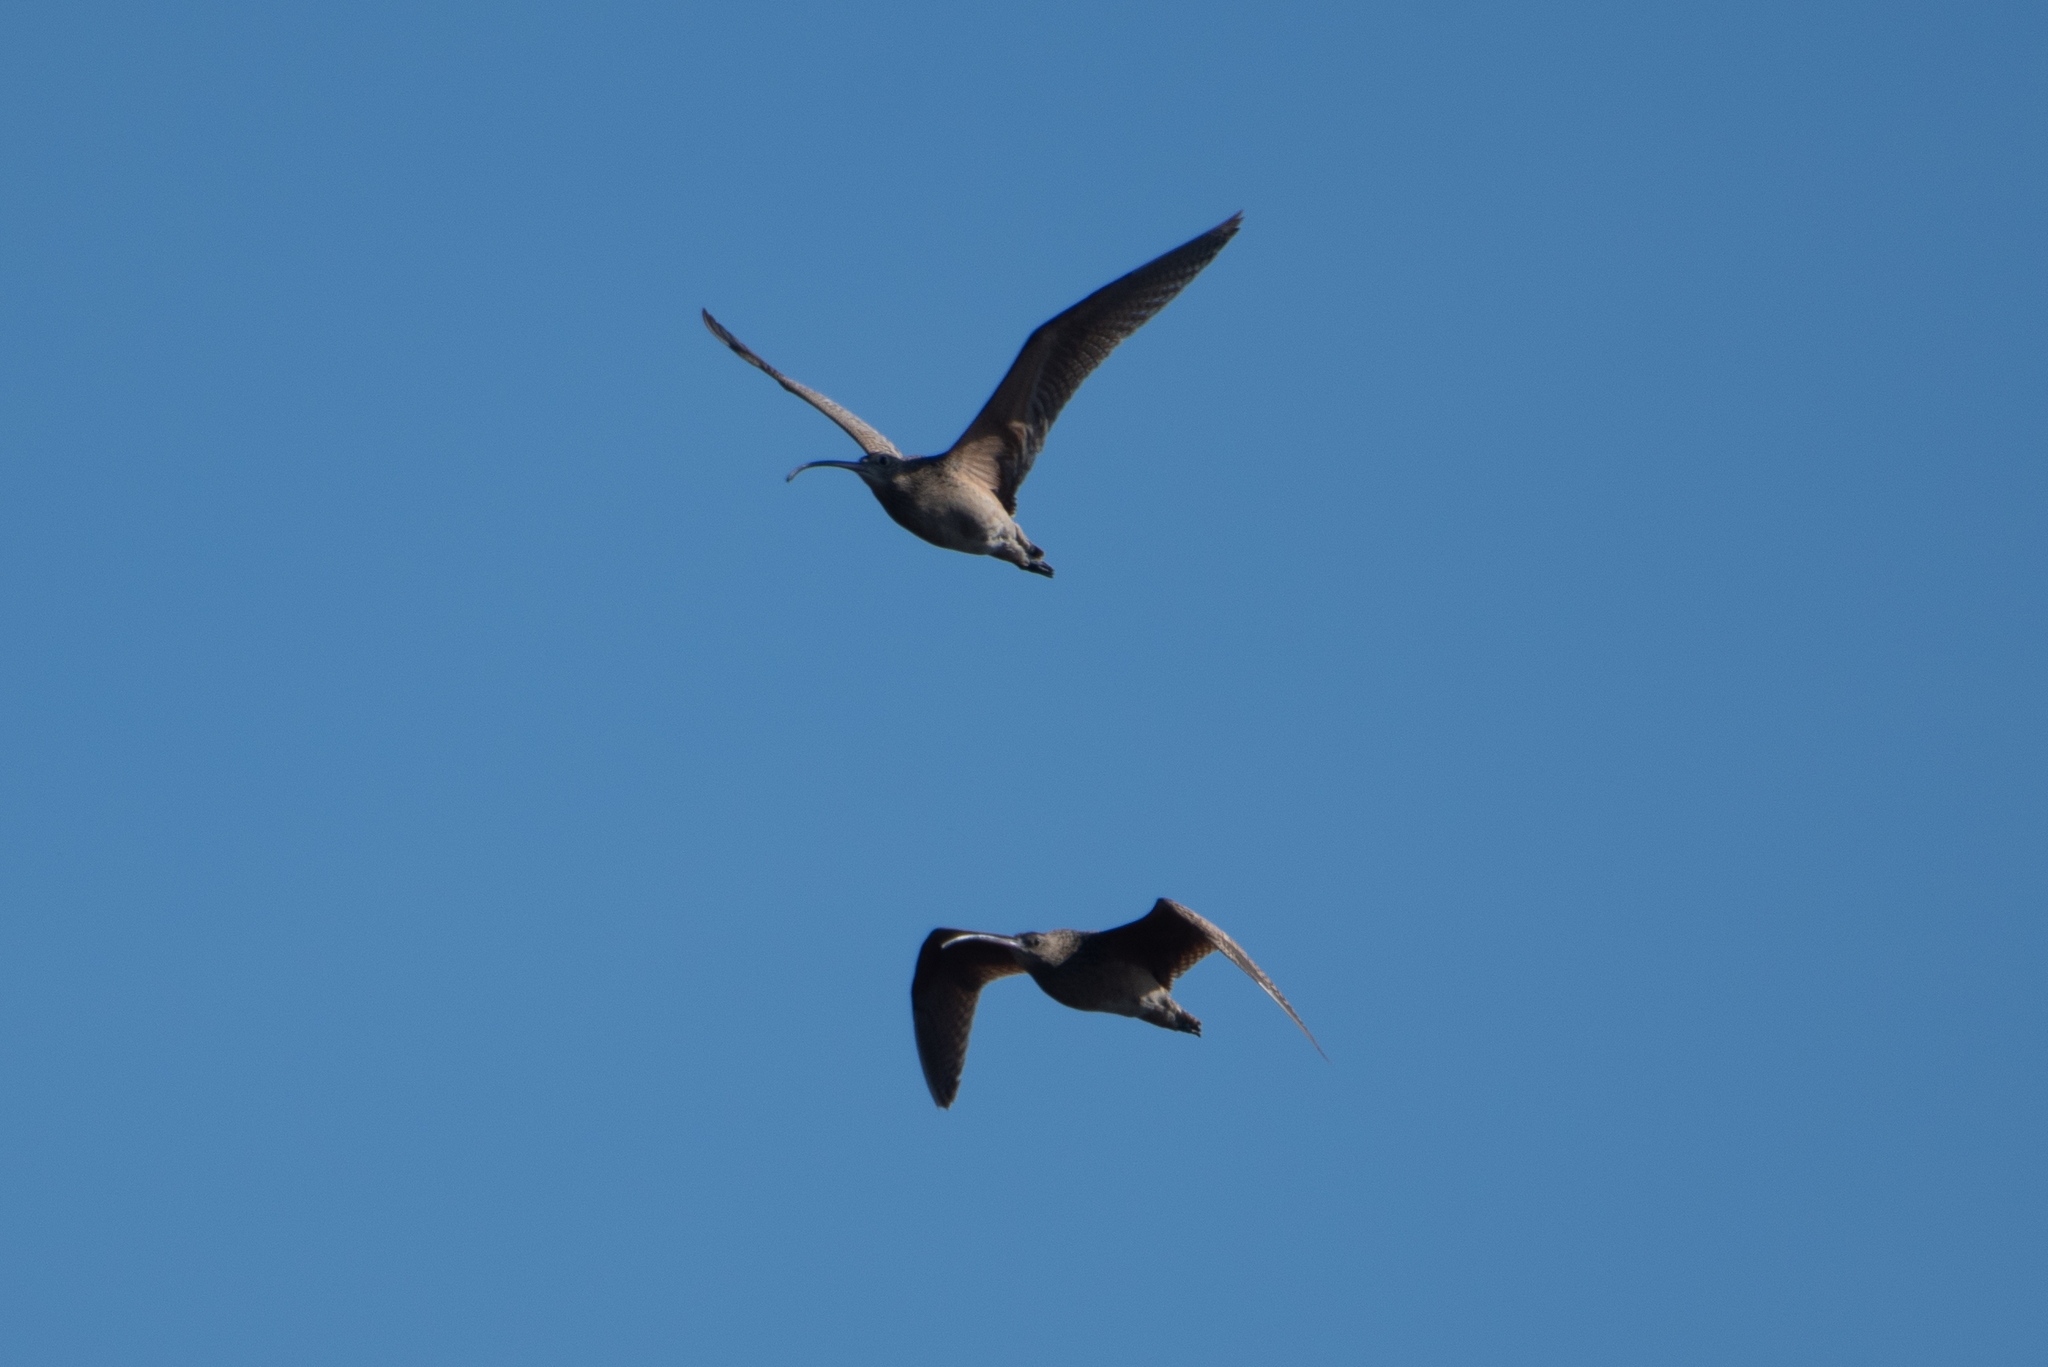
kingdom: Animalia
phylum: Chordata
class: Aves
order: Charadriiformes
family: Scolopacidae
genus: Numenius
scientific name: Numenius americanus
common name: Long-billed curlew
